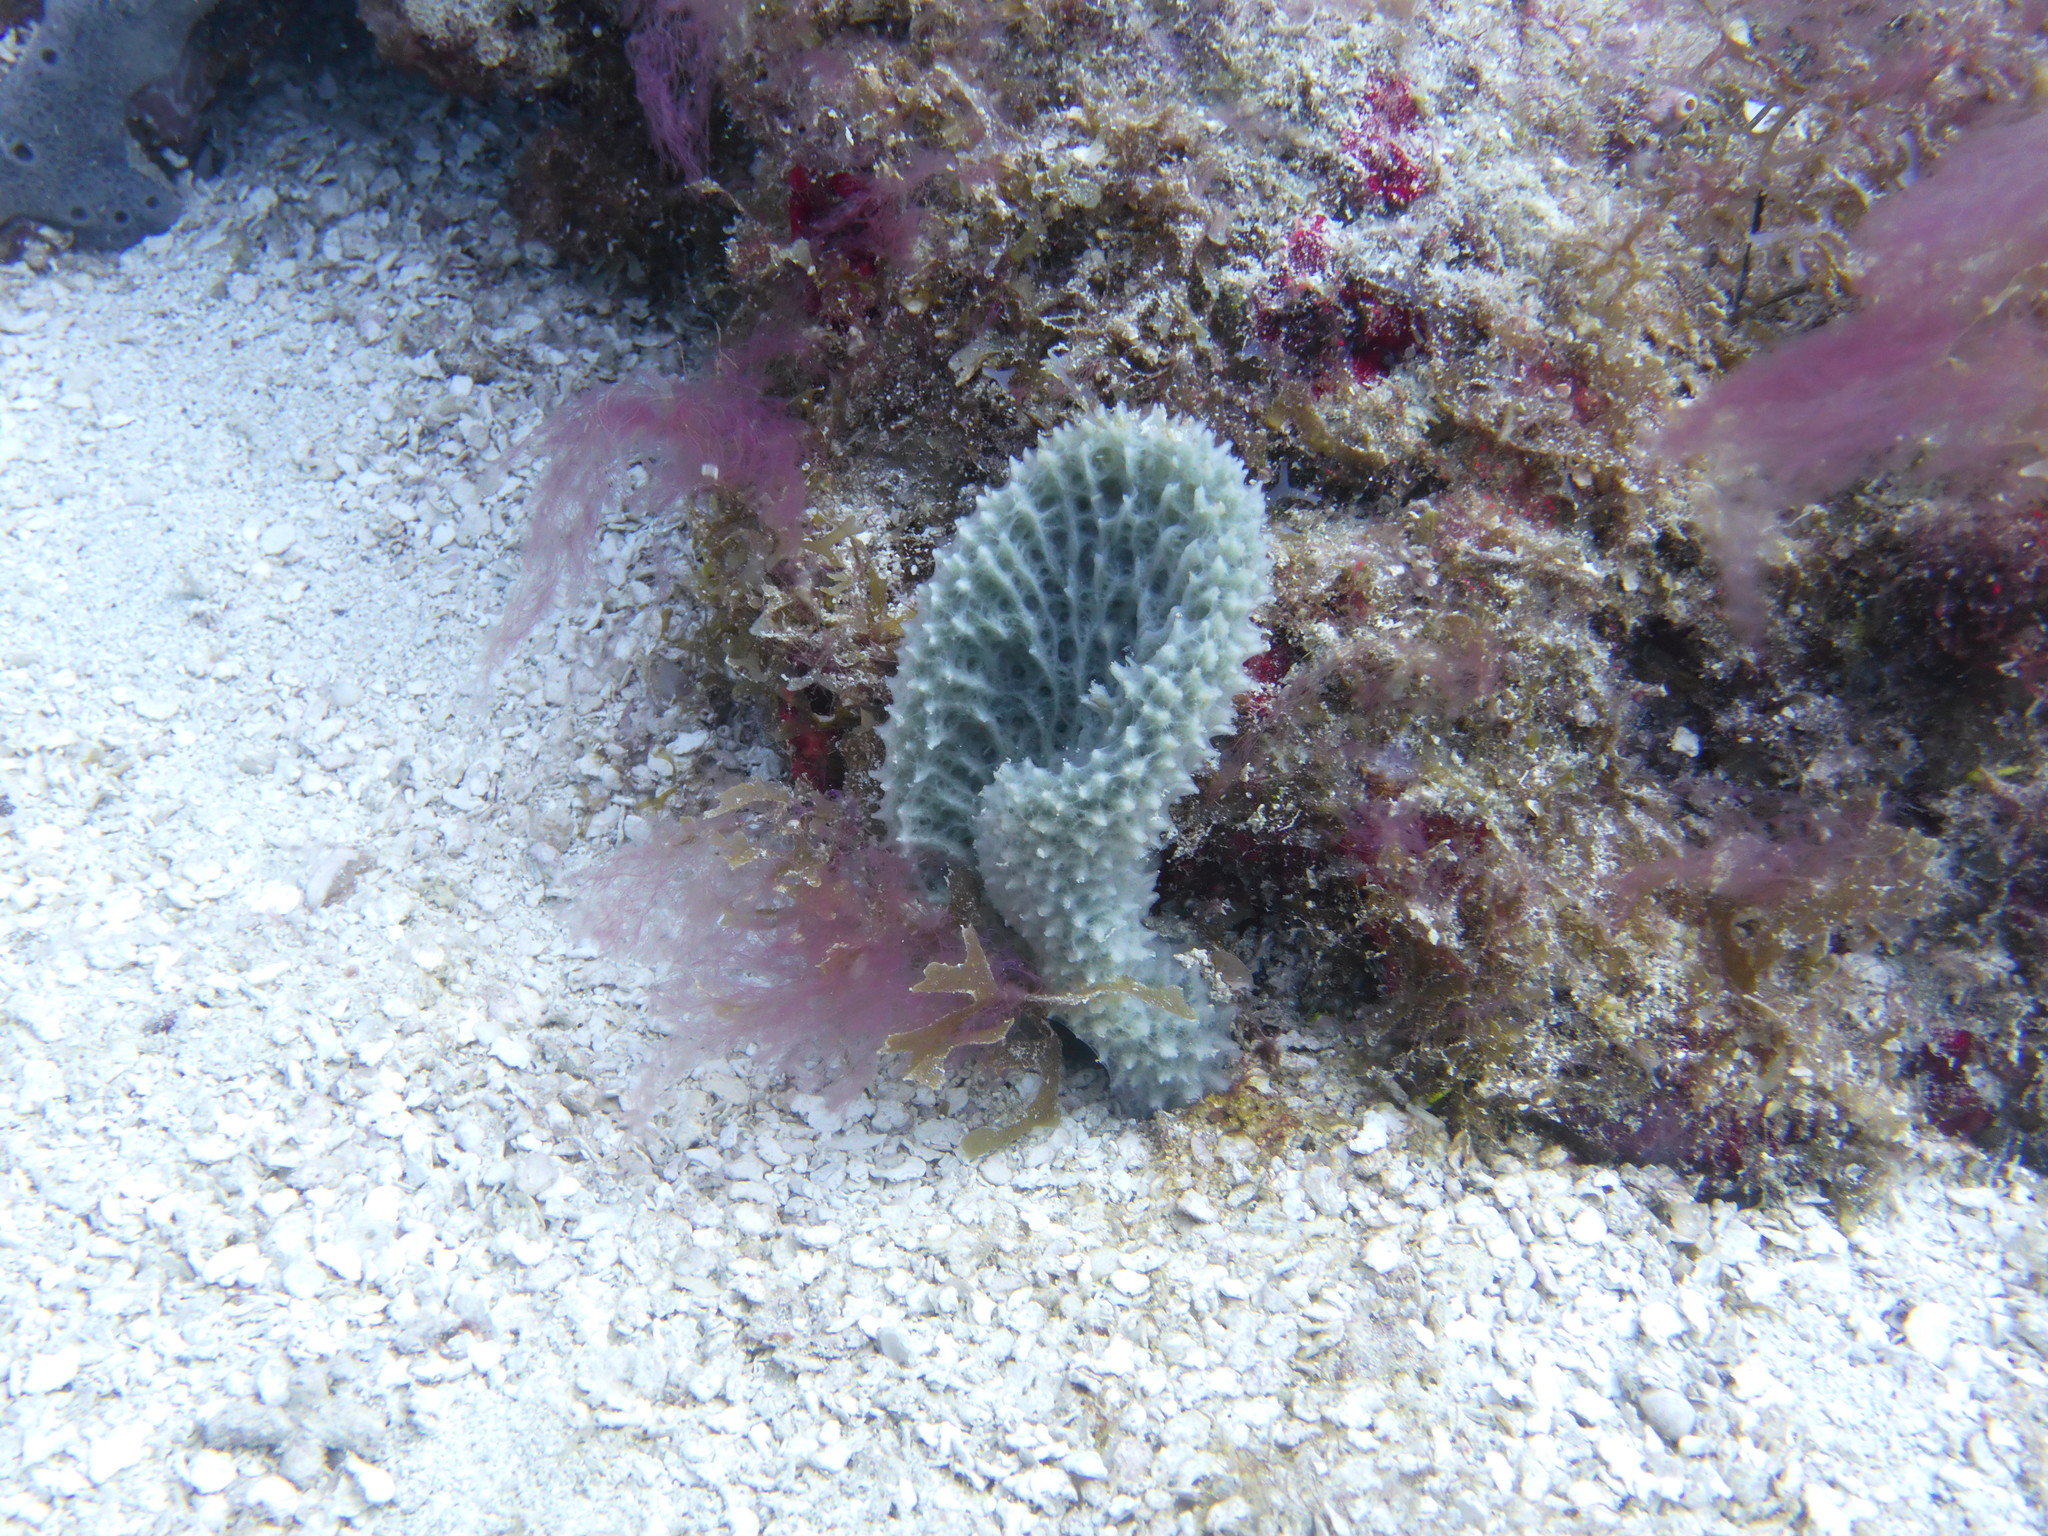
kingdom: Animalia
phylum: Porifera
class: Demospongiae
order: Haplosclerida
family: Niphatidae
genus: Niphates
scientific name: Niphates digitalis
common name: Pink vase sponge
